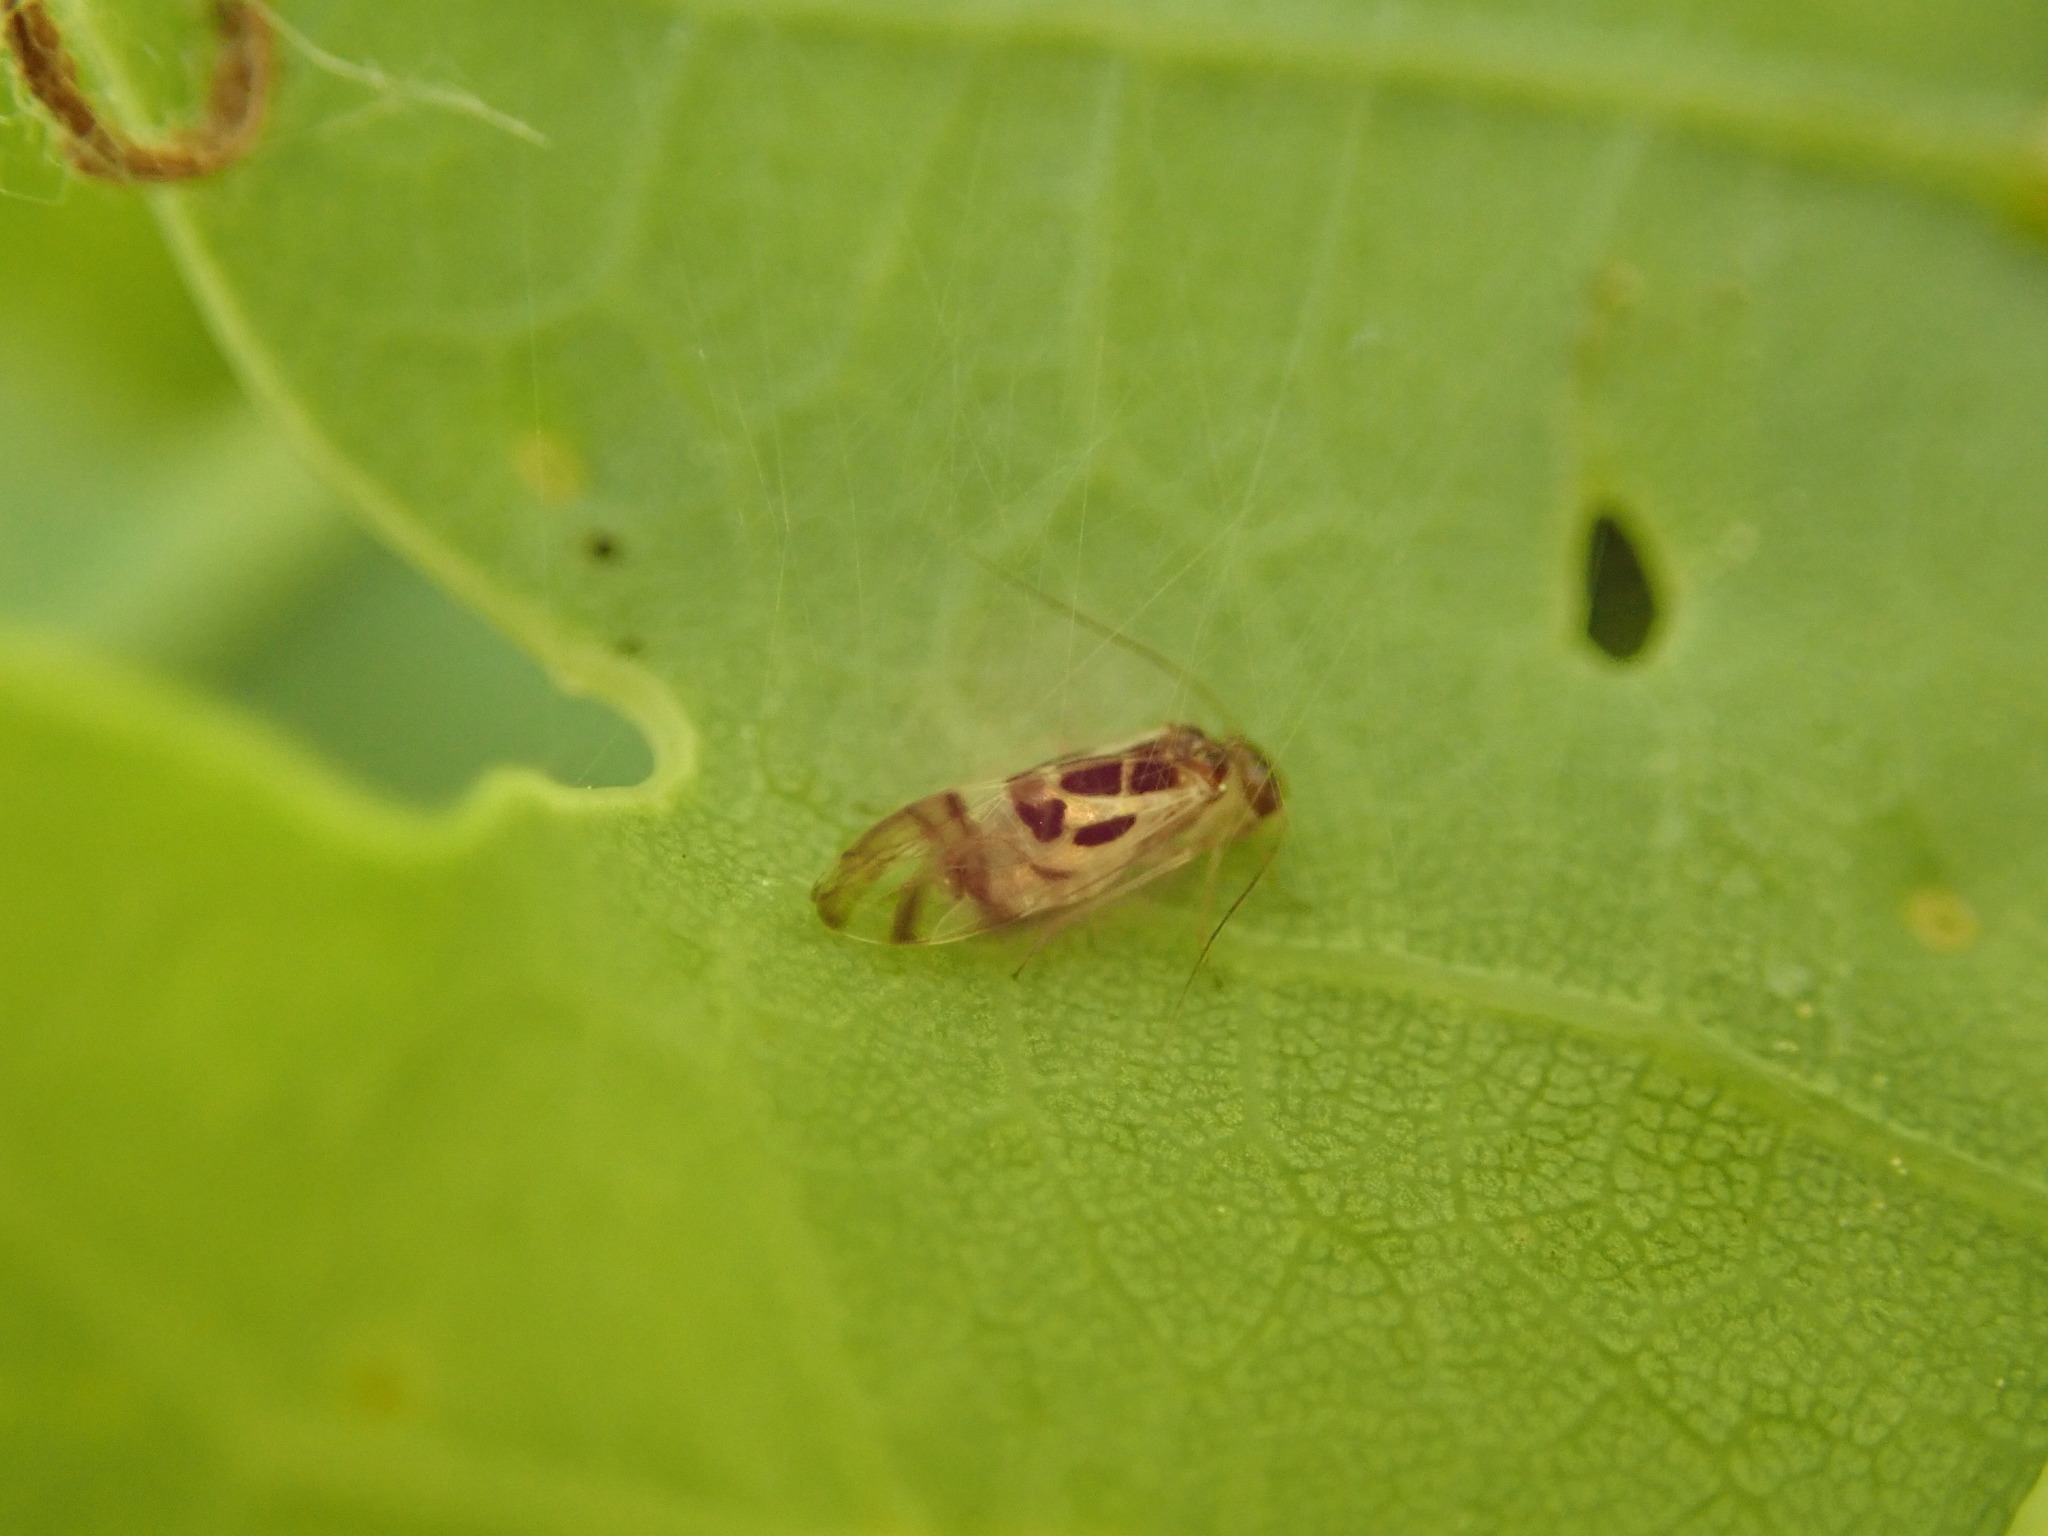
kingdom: Animalia
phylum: Arthropoda
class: Insecta
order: Psocodea
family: Stenopsocidae
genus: Graphopsocus
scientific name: Graphopsocus cruciatus
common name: Lizard bark louse
